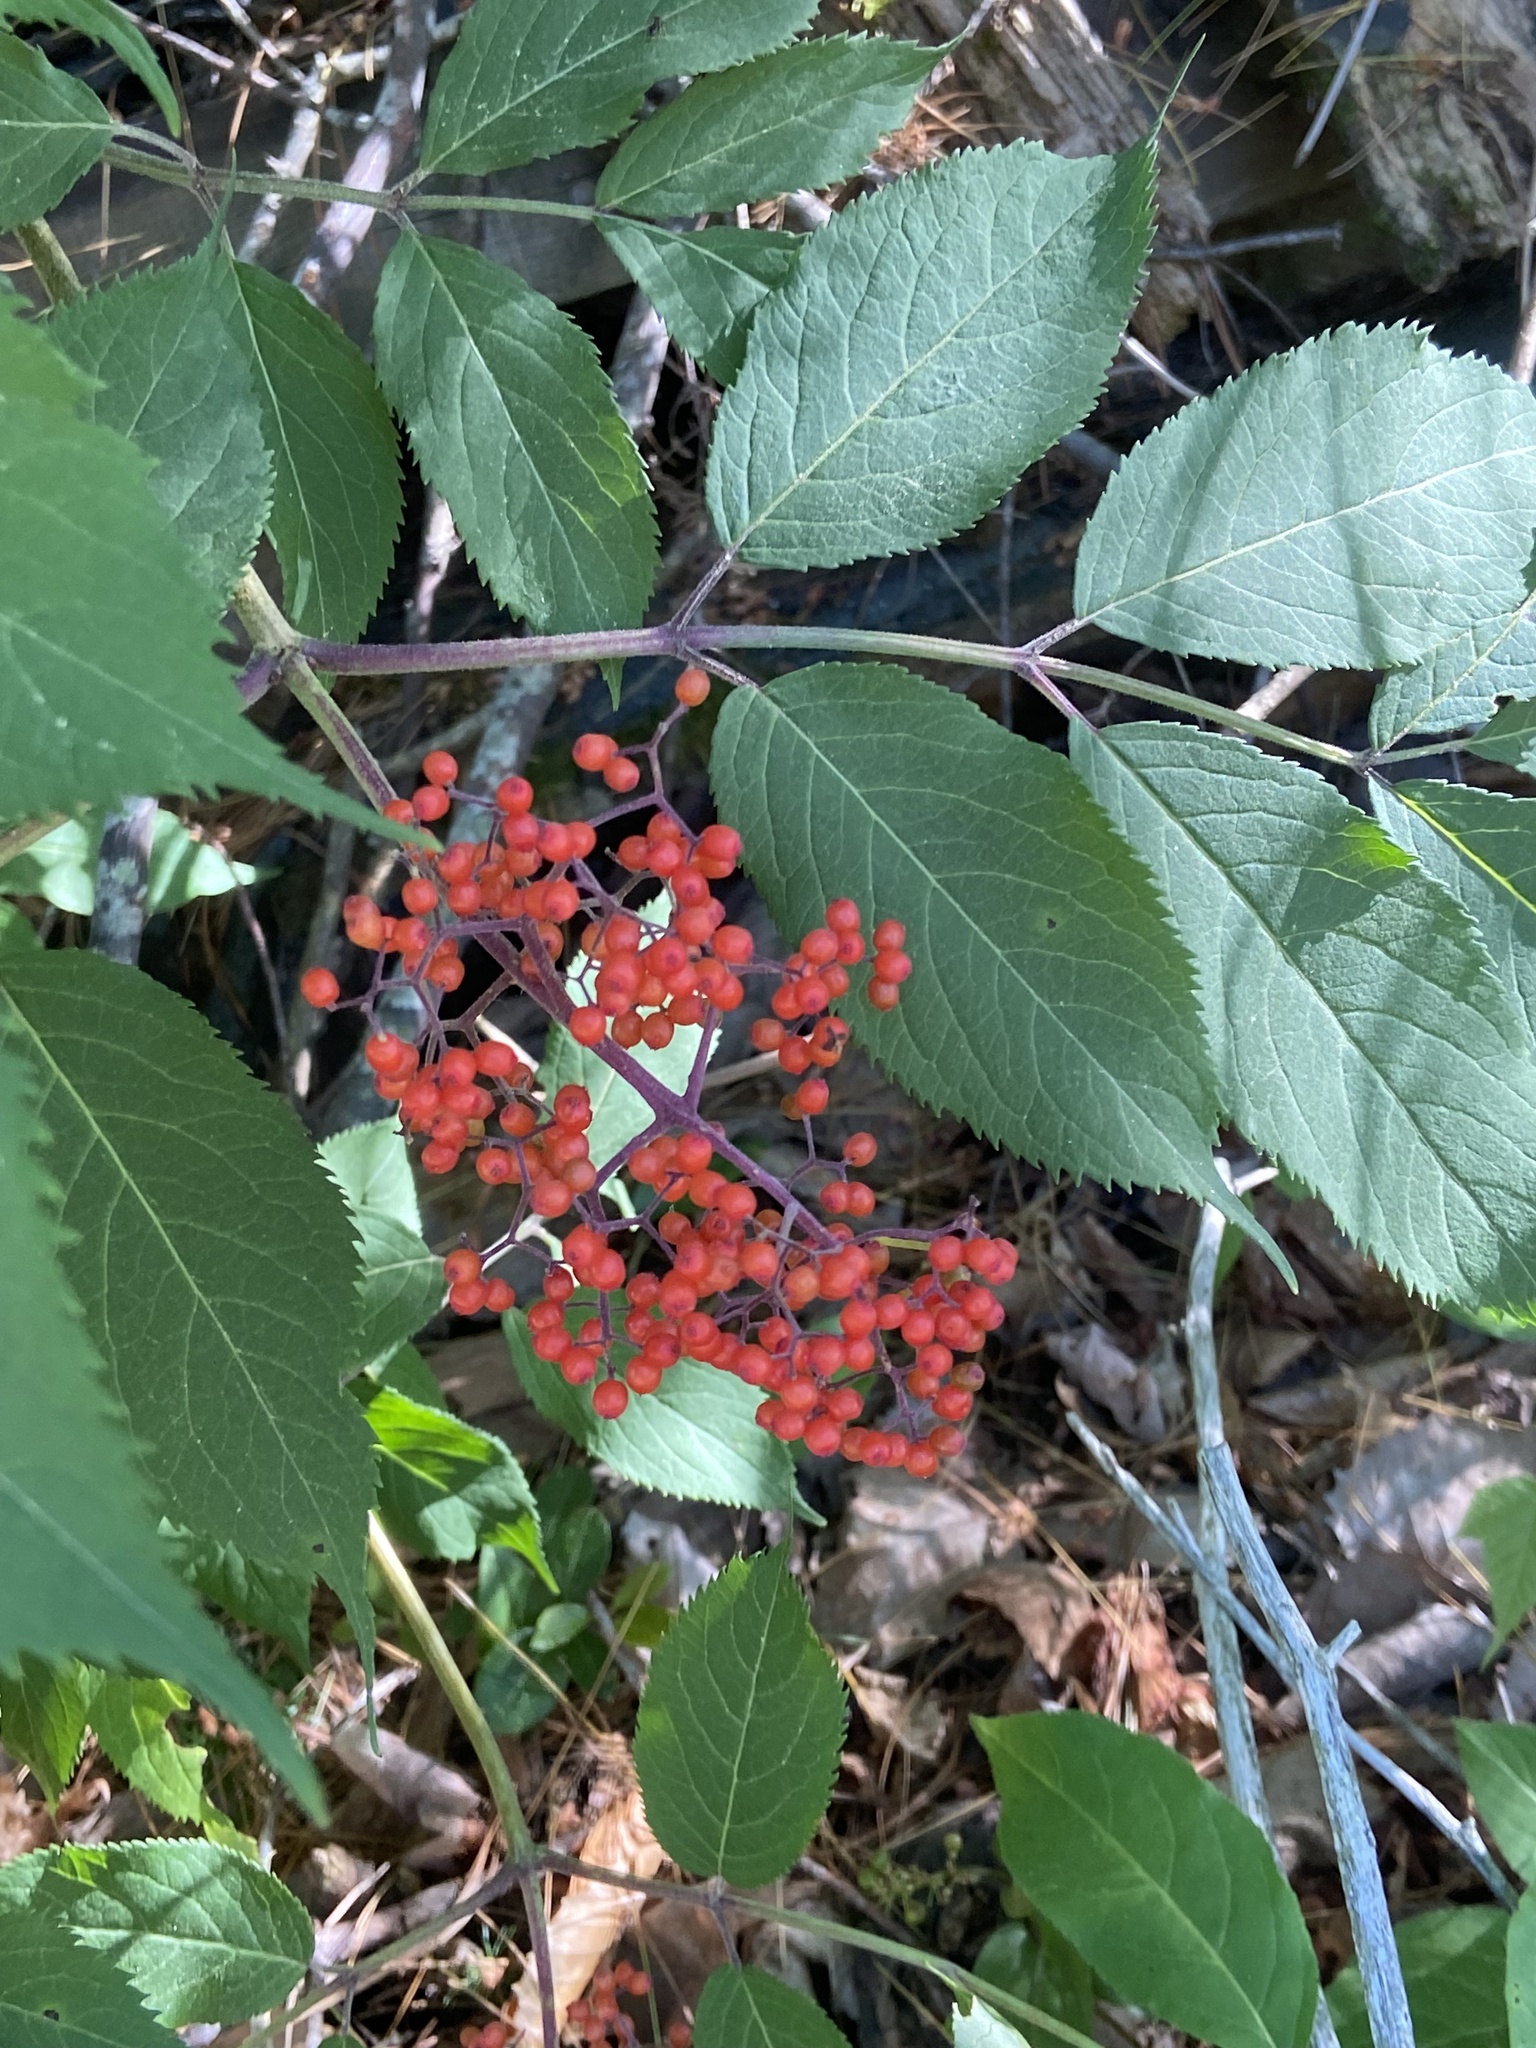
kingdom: Plantae
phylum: Tracheophyta
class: Magnoliopsida
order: Dipsacales
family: Viburnaceae
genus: Sambucus
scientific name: Sambucus racemosa
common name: Red-berried elder
